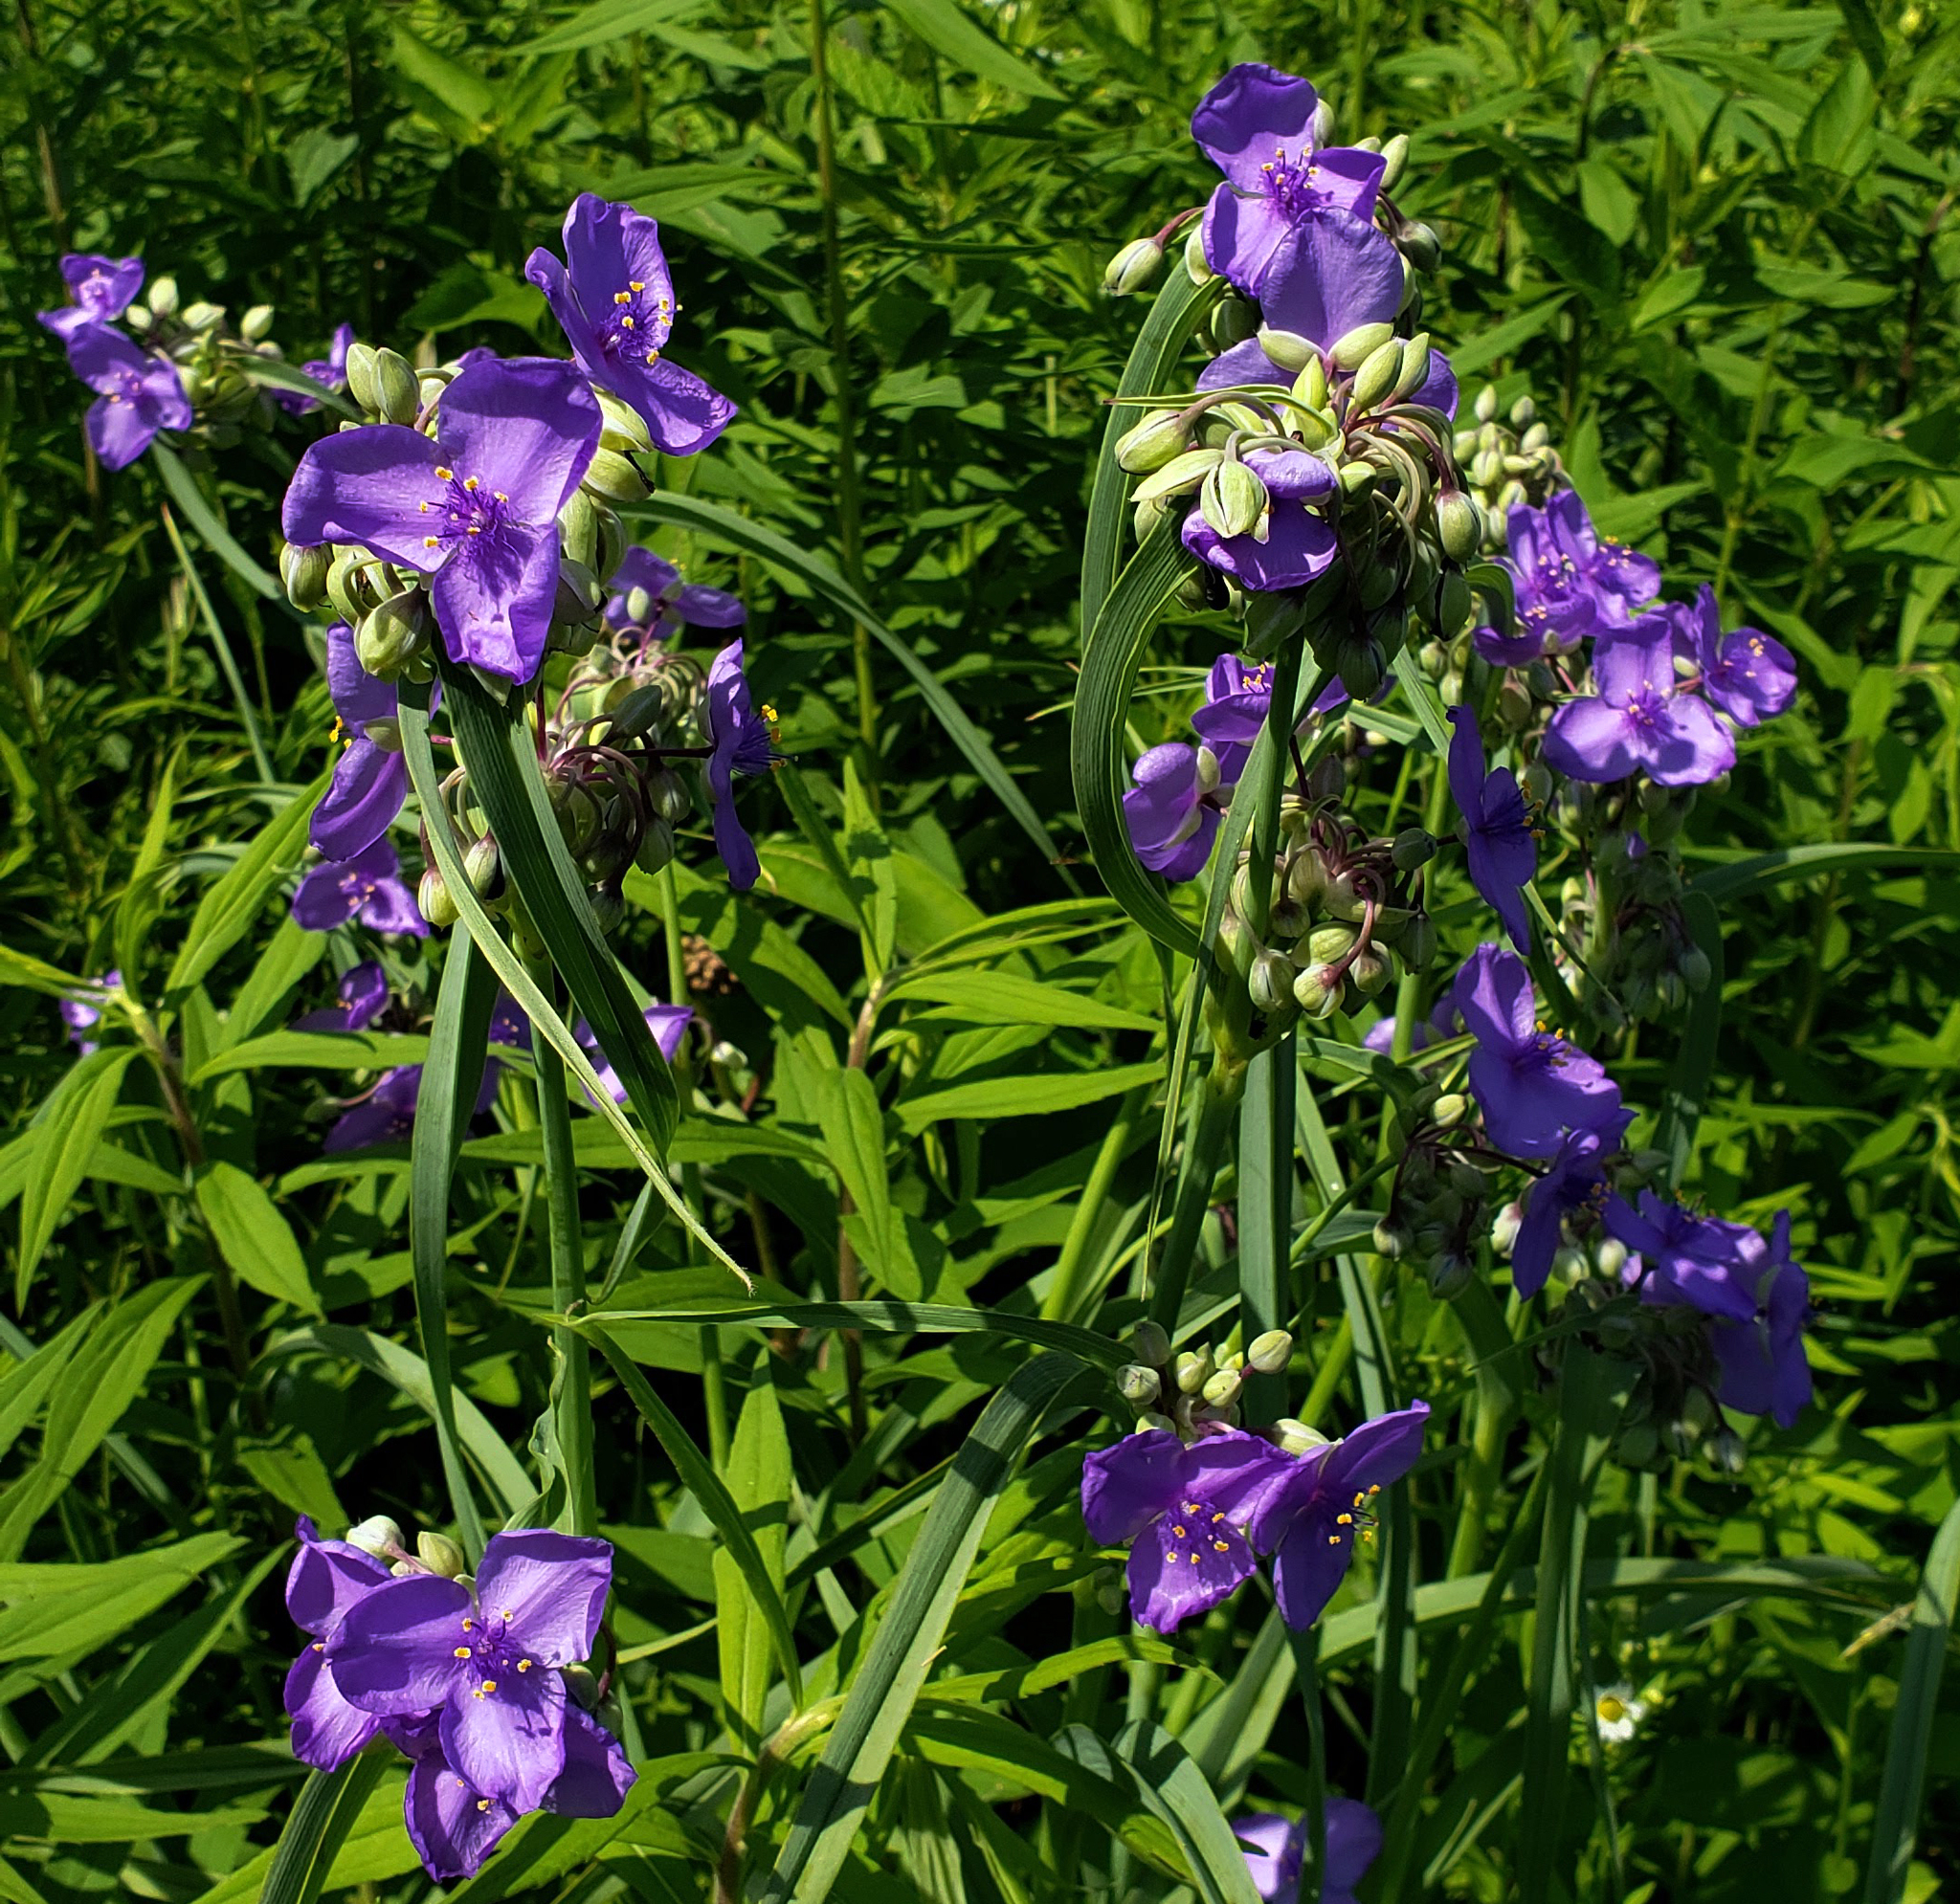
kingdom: Plantae
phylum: Tracheophyta
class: Liliopsida
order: Commelinales
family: Commelinaceae
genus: Tradescantia
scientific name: Tradescantia ohiensis
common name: Ohio spiderwort
